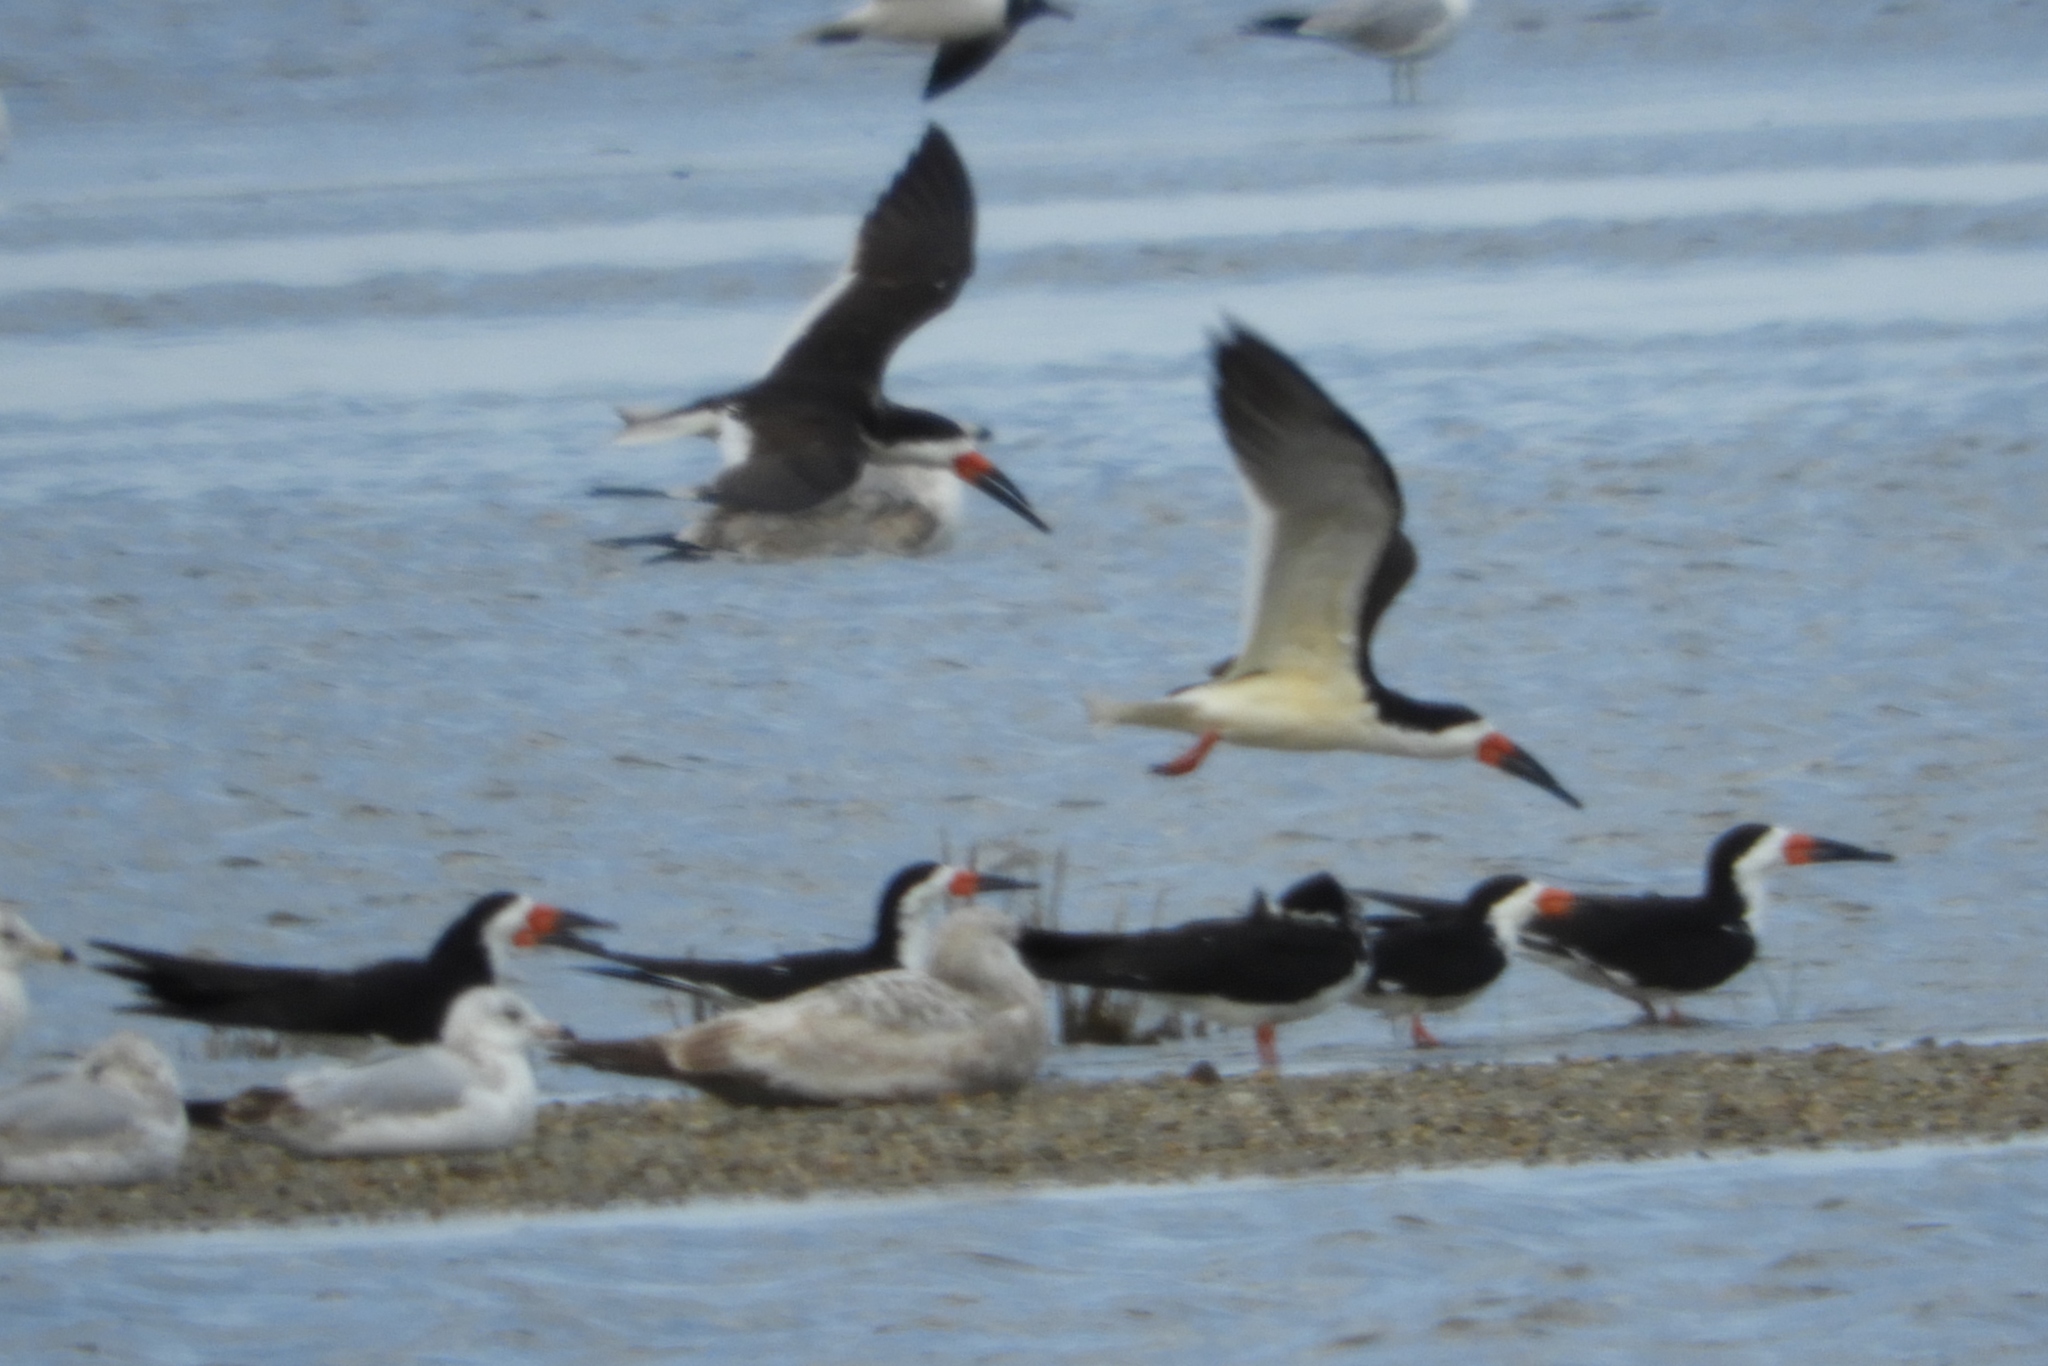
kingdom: Animalia
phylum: Chordata
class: Aves
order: Charadriiformes
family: Laridae
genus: Rynchops
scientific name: Rynchops niger
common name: Black skimmer
